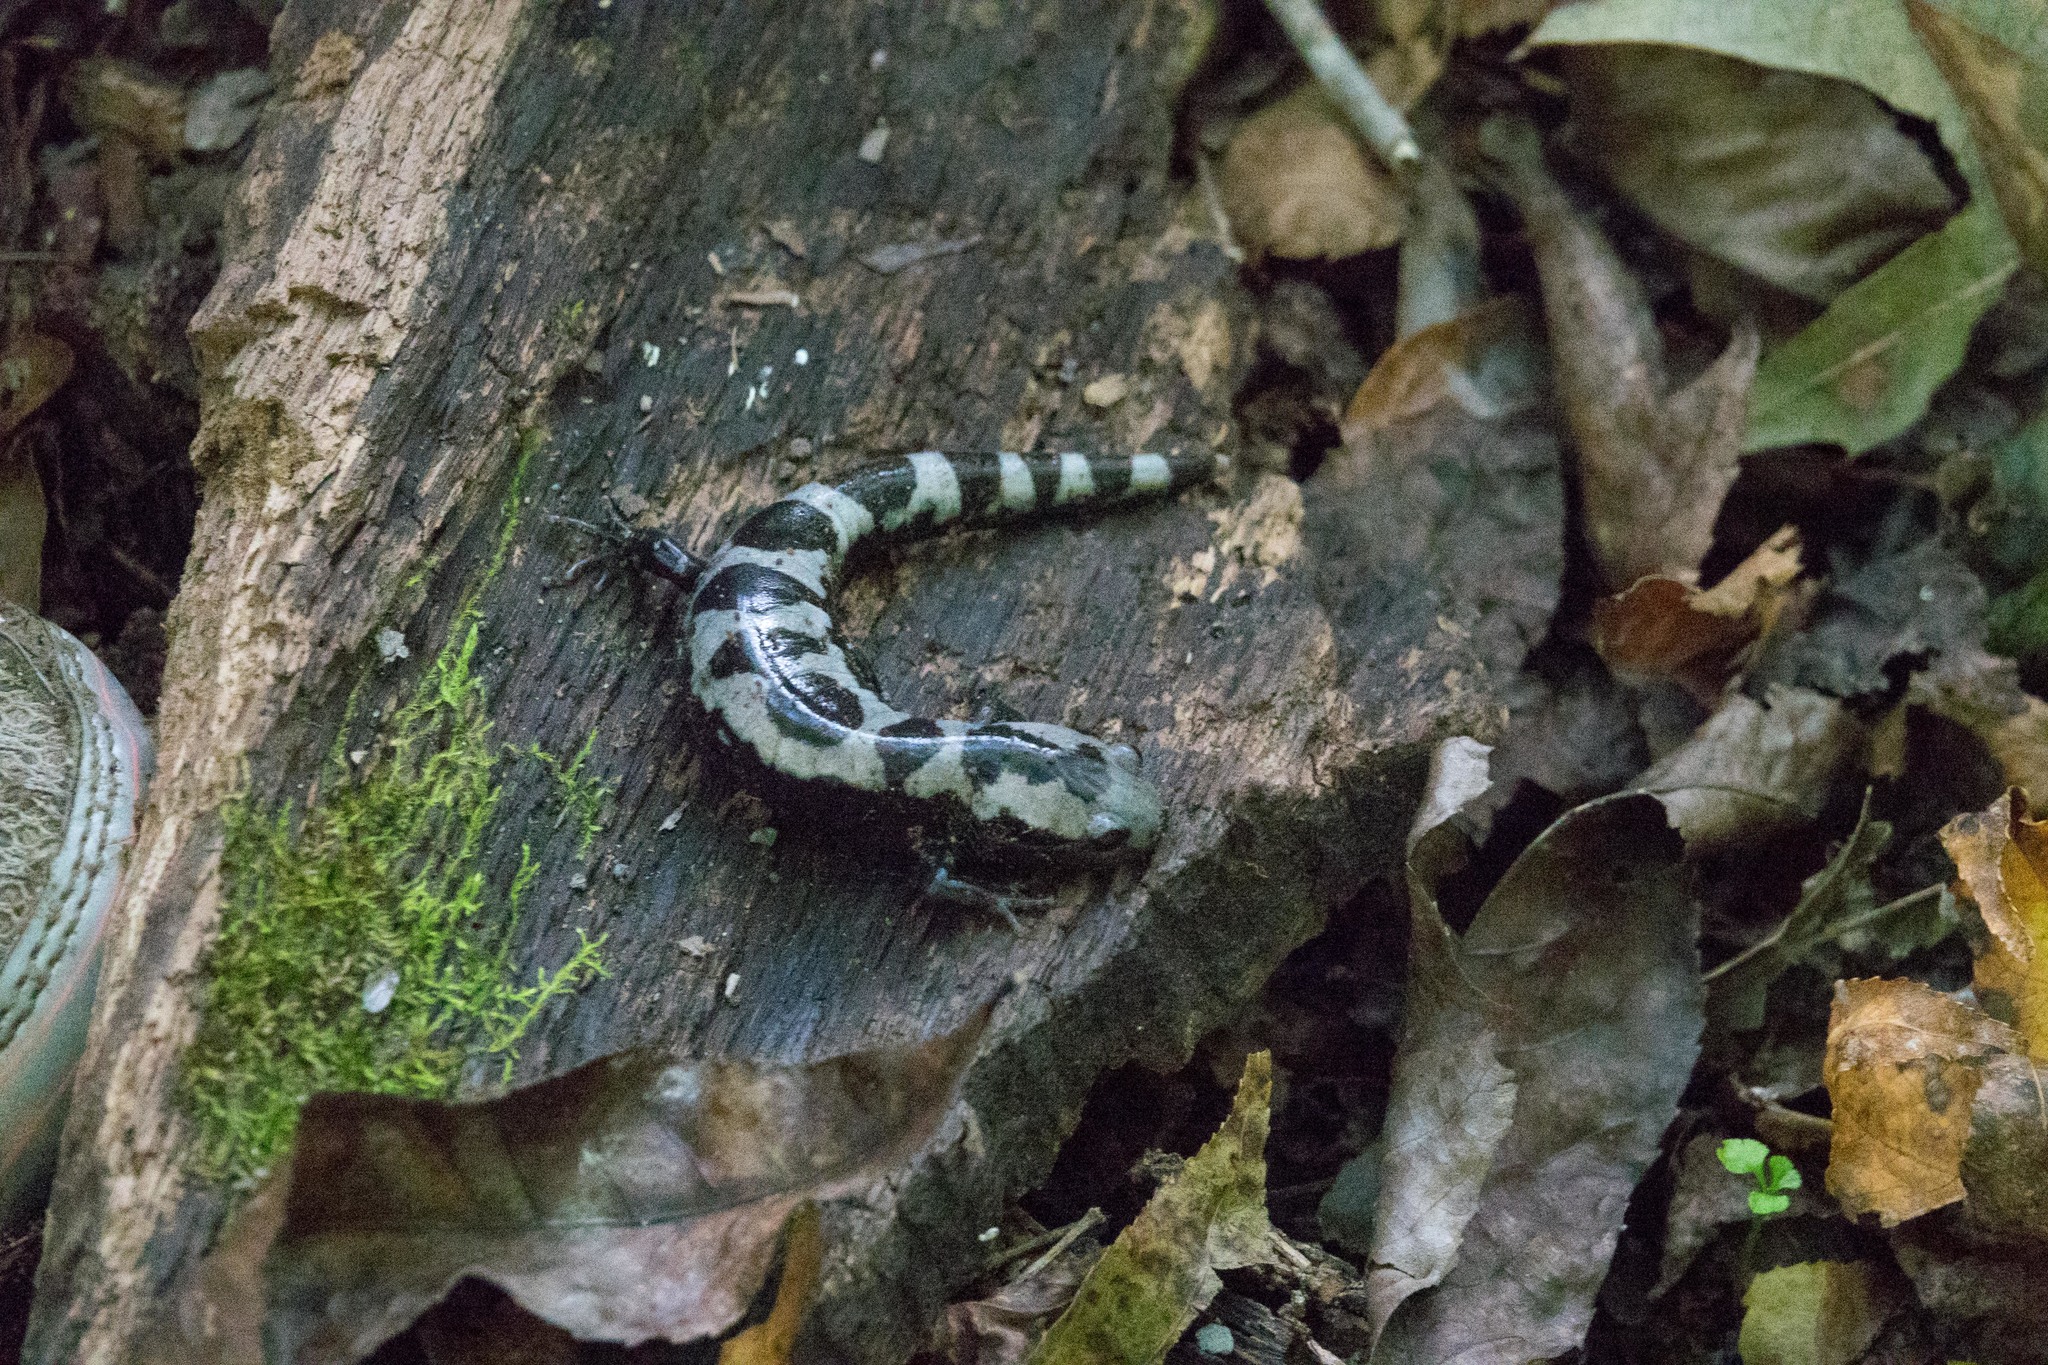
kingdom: Animalia
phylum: Chordata
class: Amphibia
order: Caudata
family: Ambystomatidae
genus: Ambystoma
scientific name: Ambystoma opacum
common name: Marbled salamander
